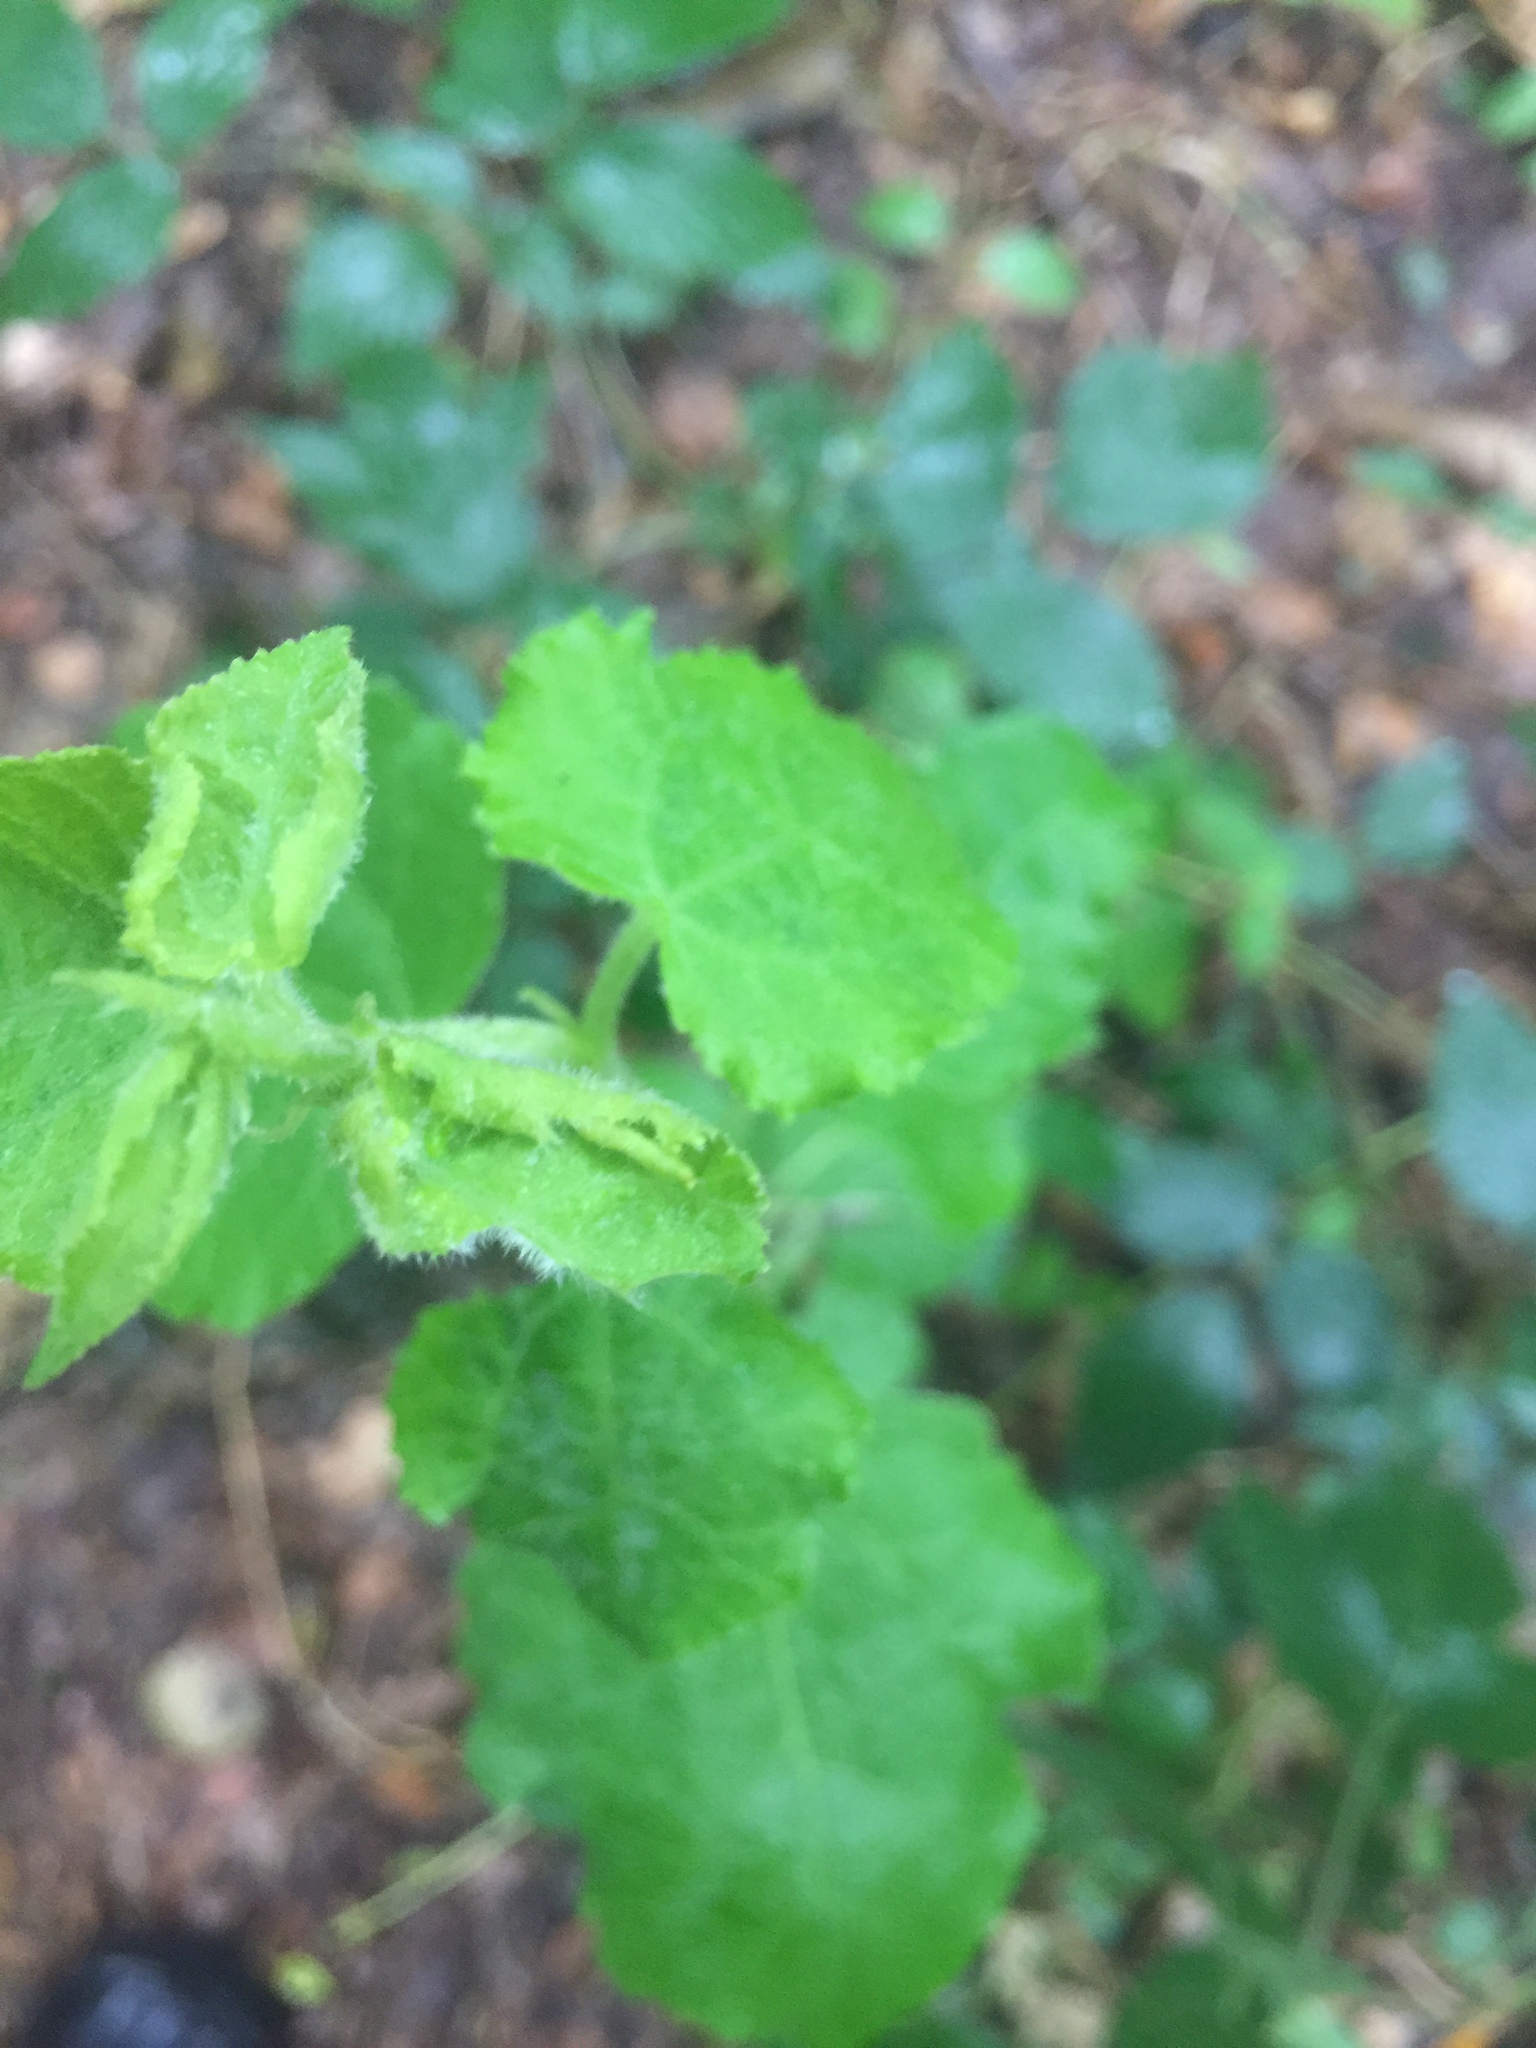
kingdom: Animalia
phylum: Arthropoda
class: Insecta
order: Diptera
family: Cecidomyiidae
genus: Dasineura
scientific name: Dasineura populeti
